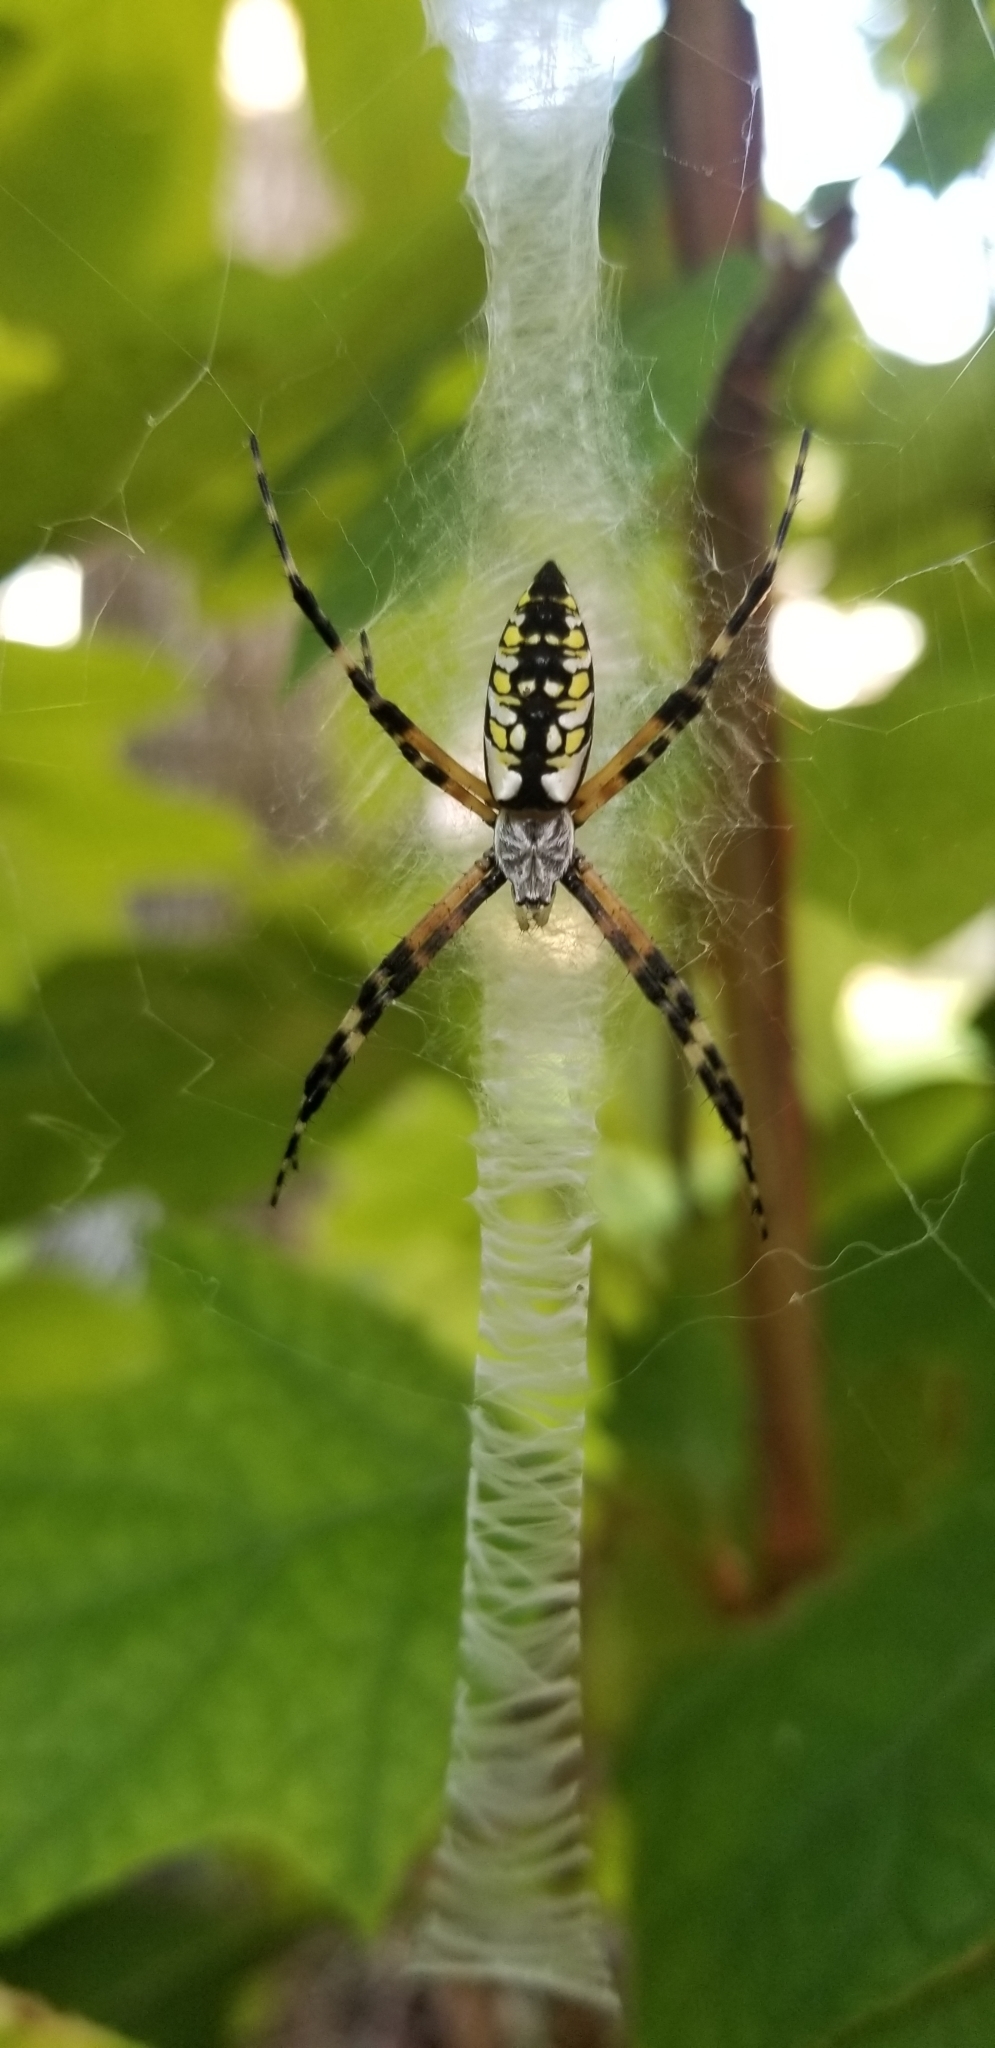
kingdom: Animalia
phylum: Arthropoda
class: Arachnida
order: Araneae
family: Araneidae
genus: Argiope
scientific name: Argiope aurantia
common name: Orb weavers
